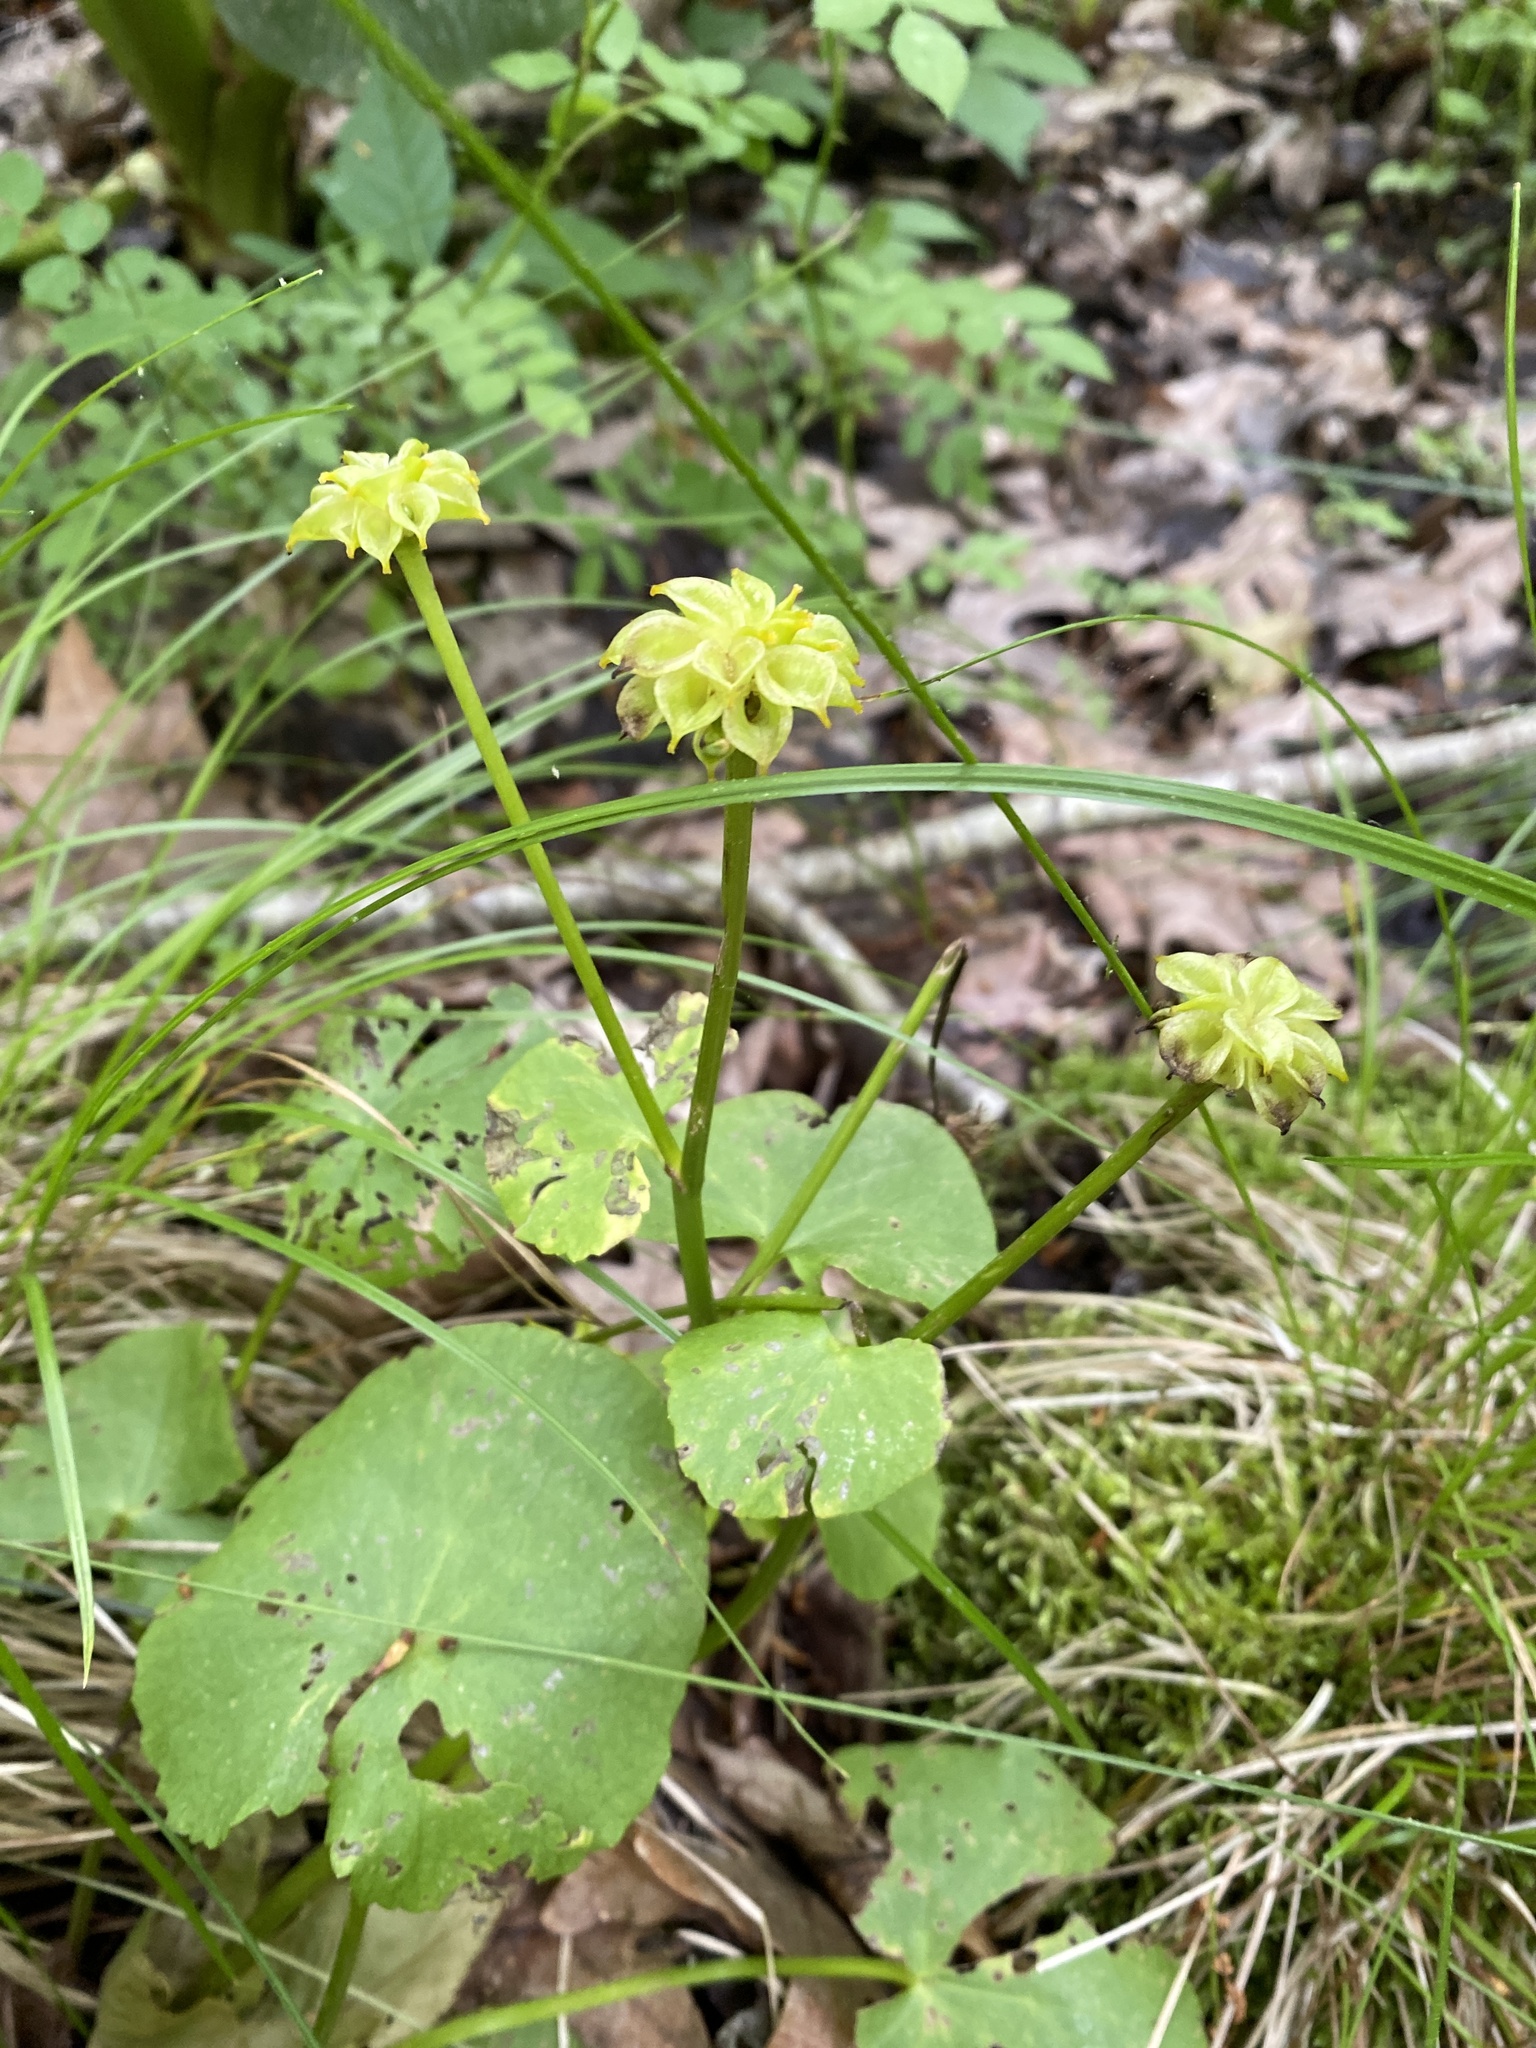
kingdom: Plantae
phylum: Tracheophyta
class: Magnoliopsida
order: Ranunculales
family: Ranunculaceae
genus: Caltha
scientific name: Caltha palustris
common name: Marsh marigold
